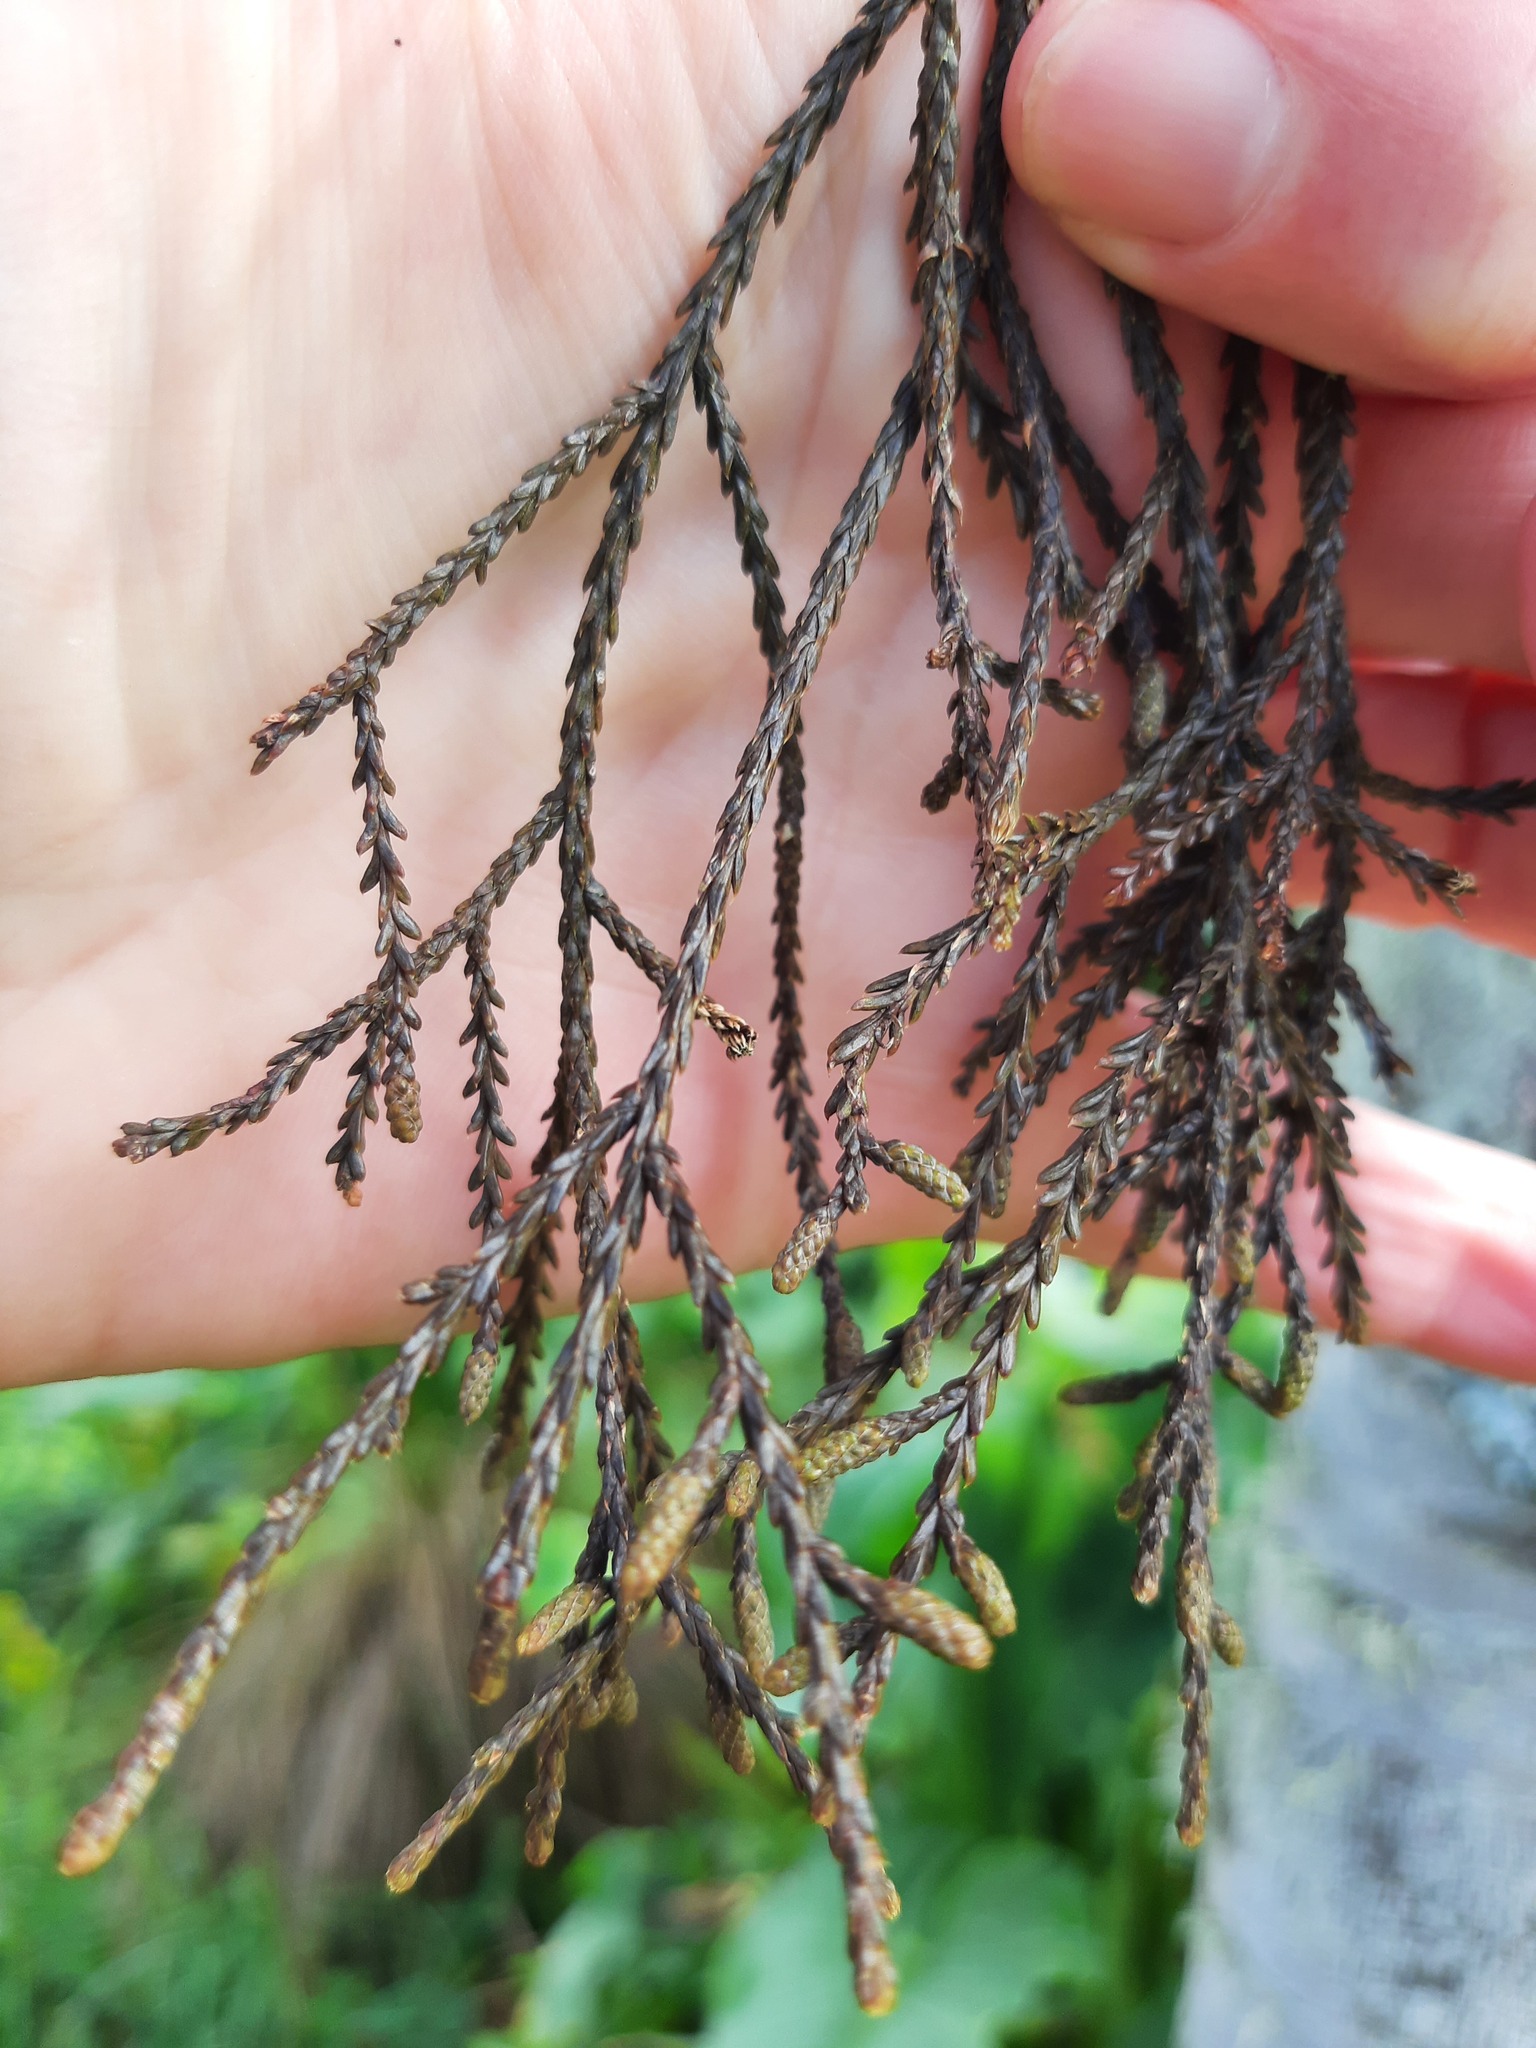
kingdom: Plantae
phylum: Tracheophyta
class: Pinopsida
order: Pinales
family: Podocarpaceae
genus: Dacrycarpus
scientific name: Dacrycarpus dacrydioides
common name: White pine
